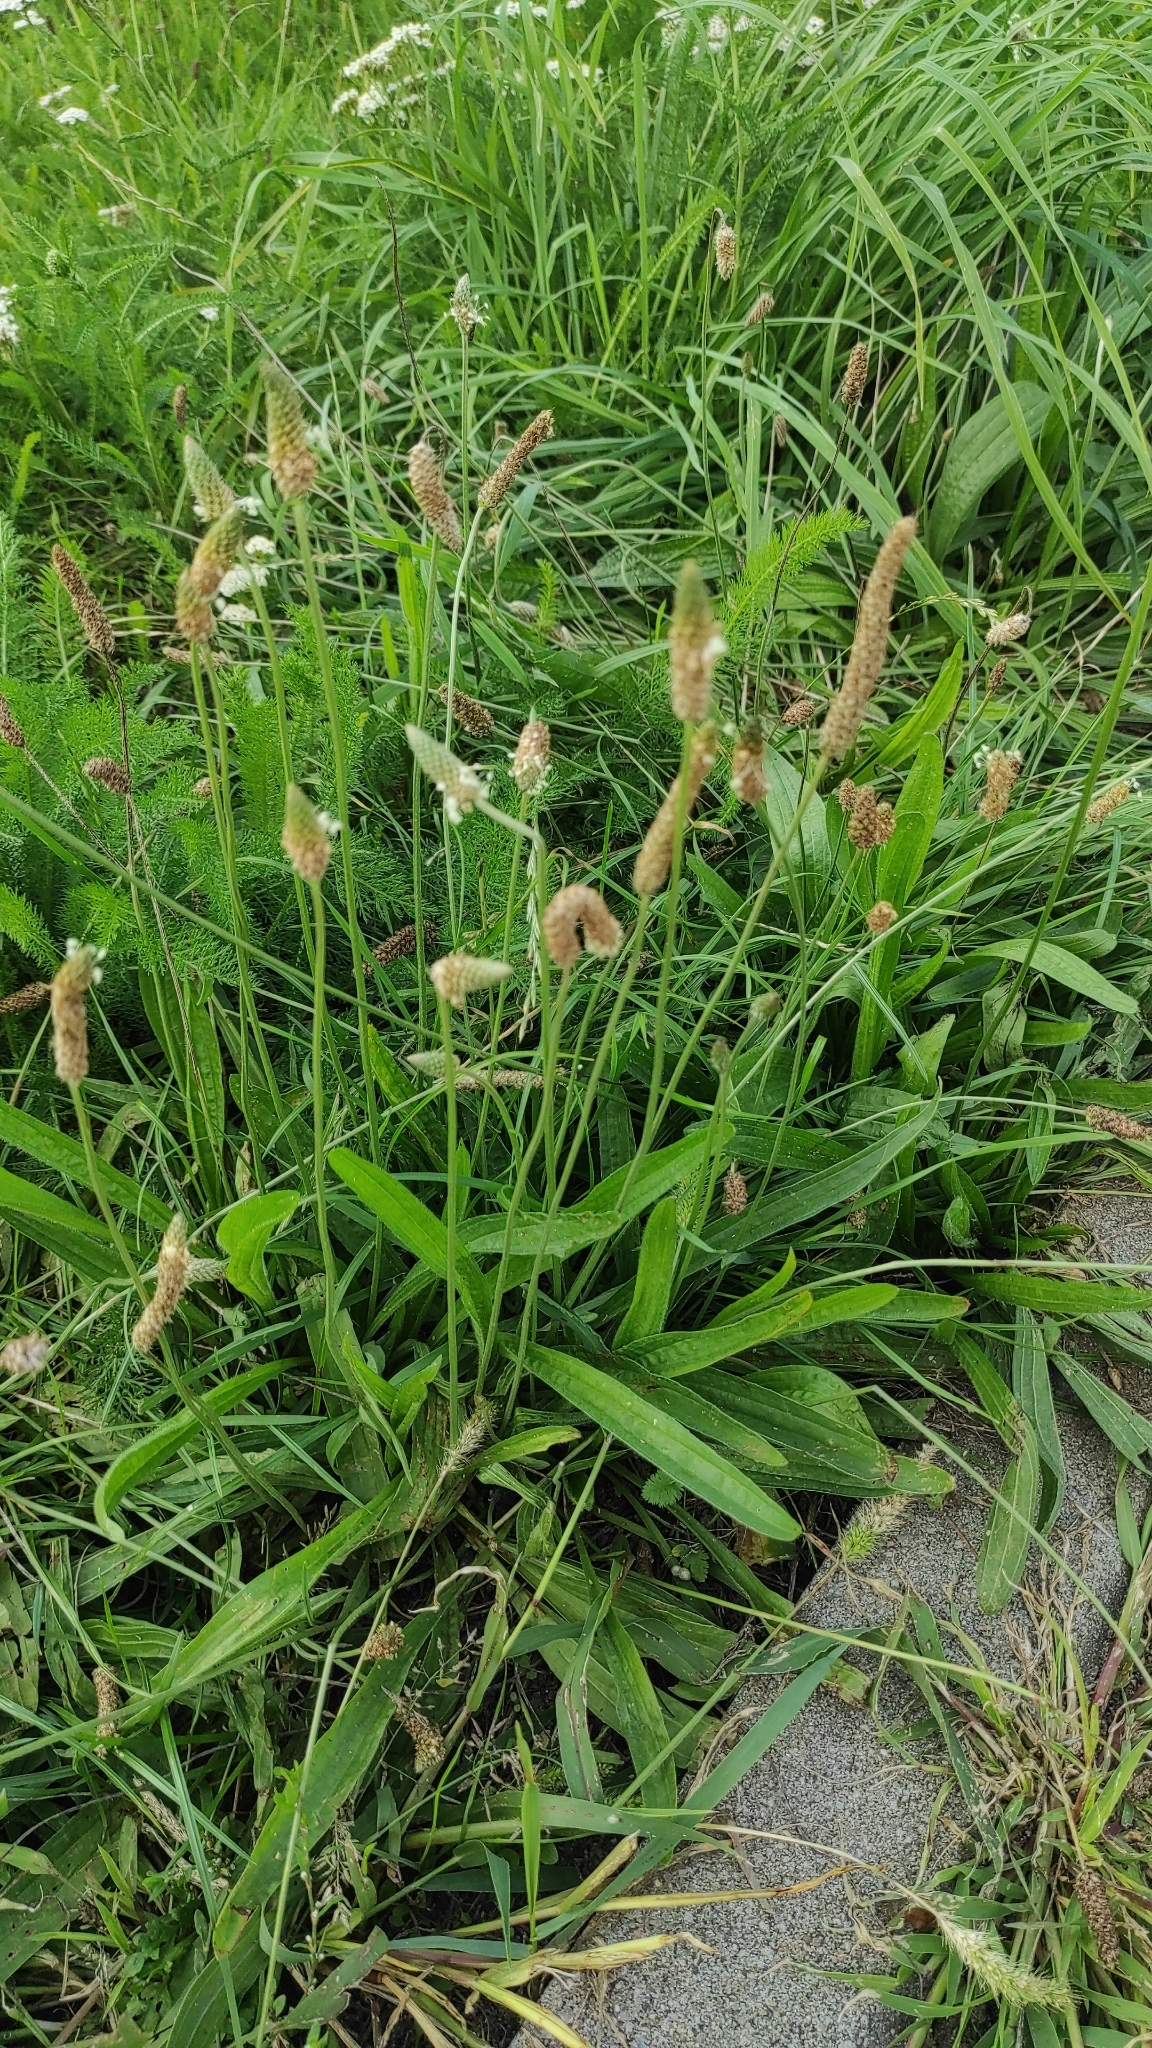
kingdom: Plantae
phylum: Tracheophyta
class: Magnoliopsida
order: Lamiales
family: Plantaginaceae
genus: Plantago
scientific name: Plantago lanceolata
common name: Ribwort plantain
